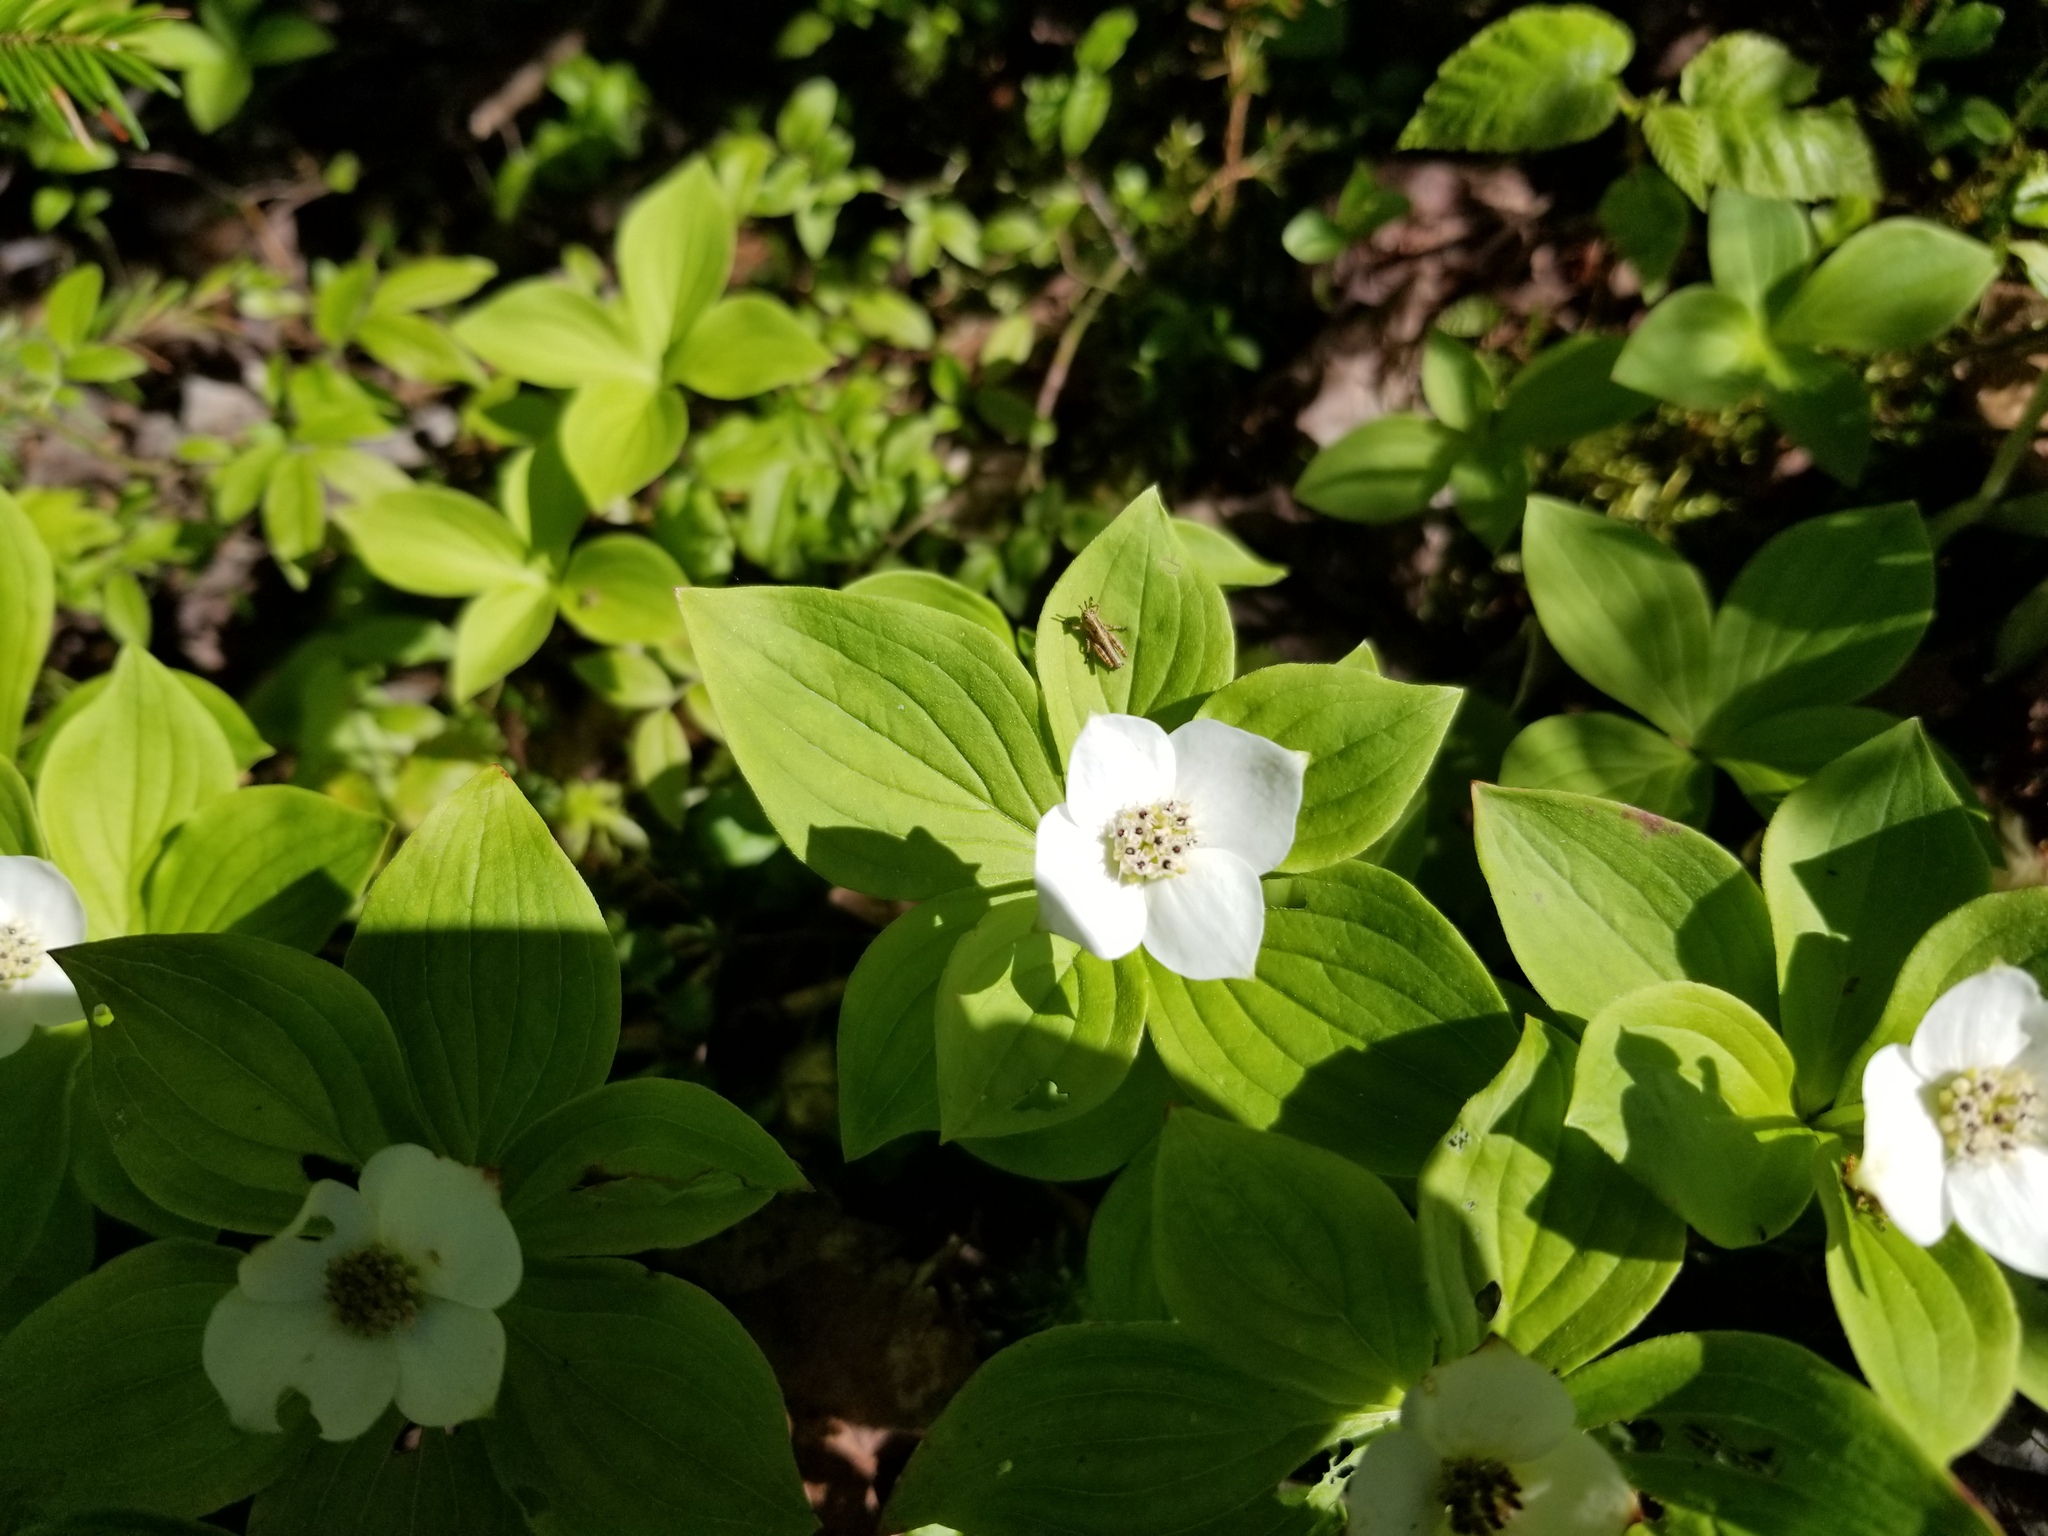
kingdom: Plantae
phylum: Tracheophyta
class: Magnoliopsida
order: Cornales
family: Cornaceae
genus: Cornus
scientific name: Cornus canadensis
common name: Creeping dogwood
